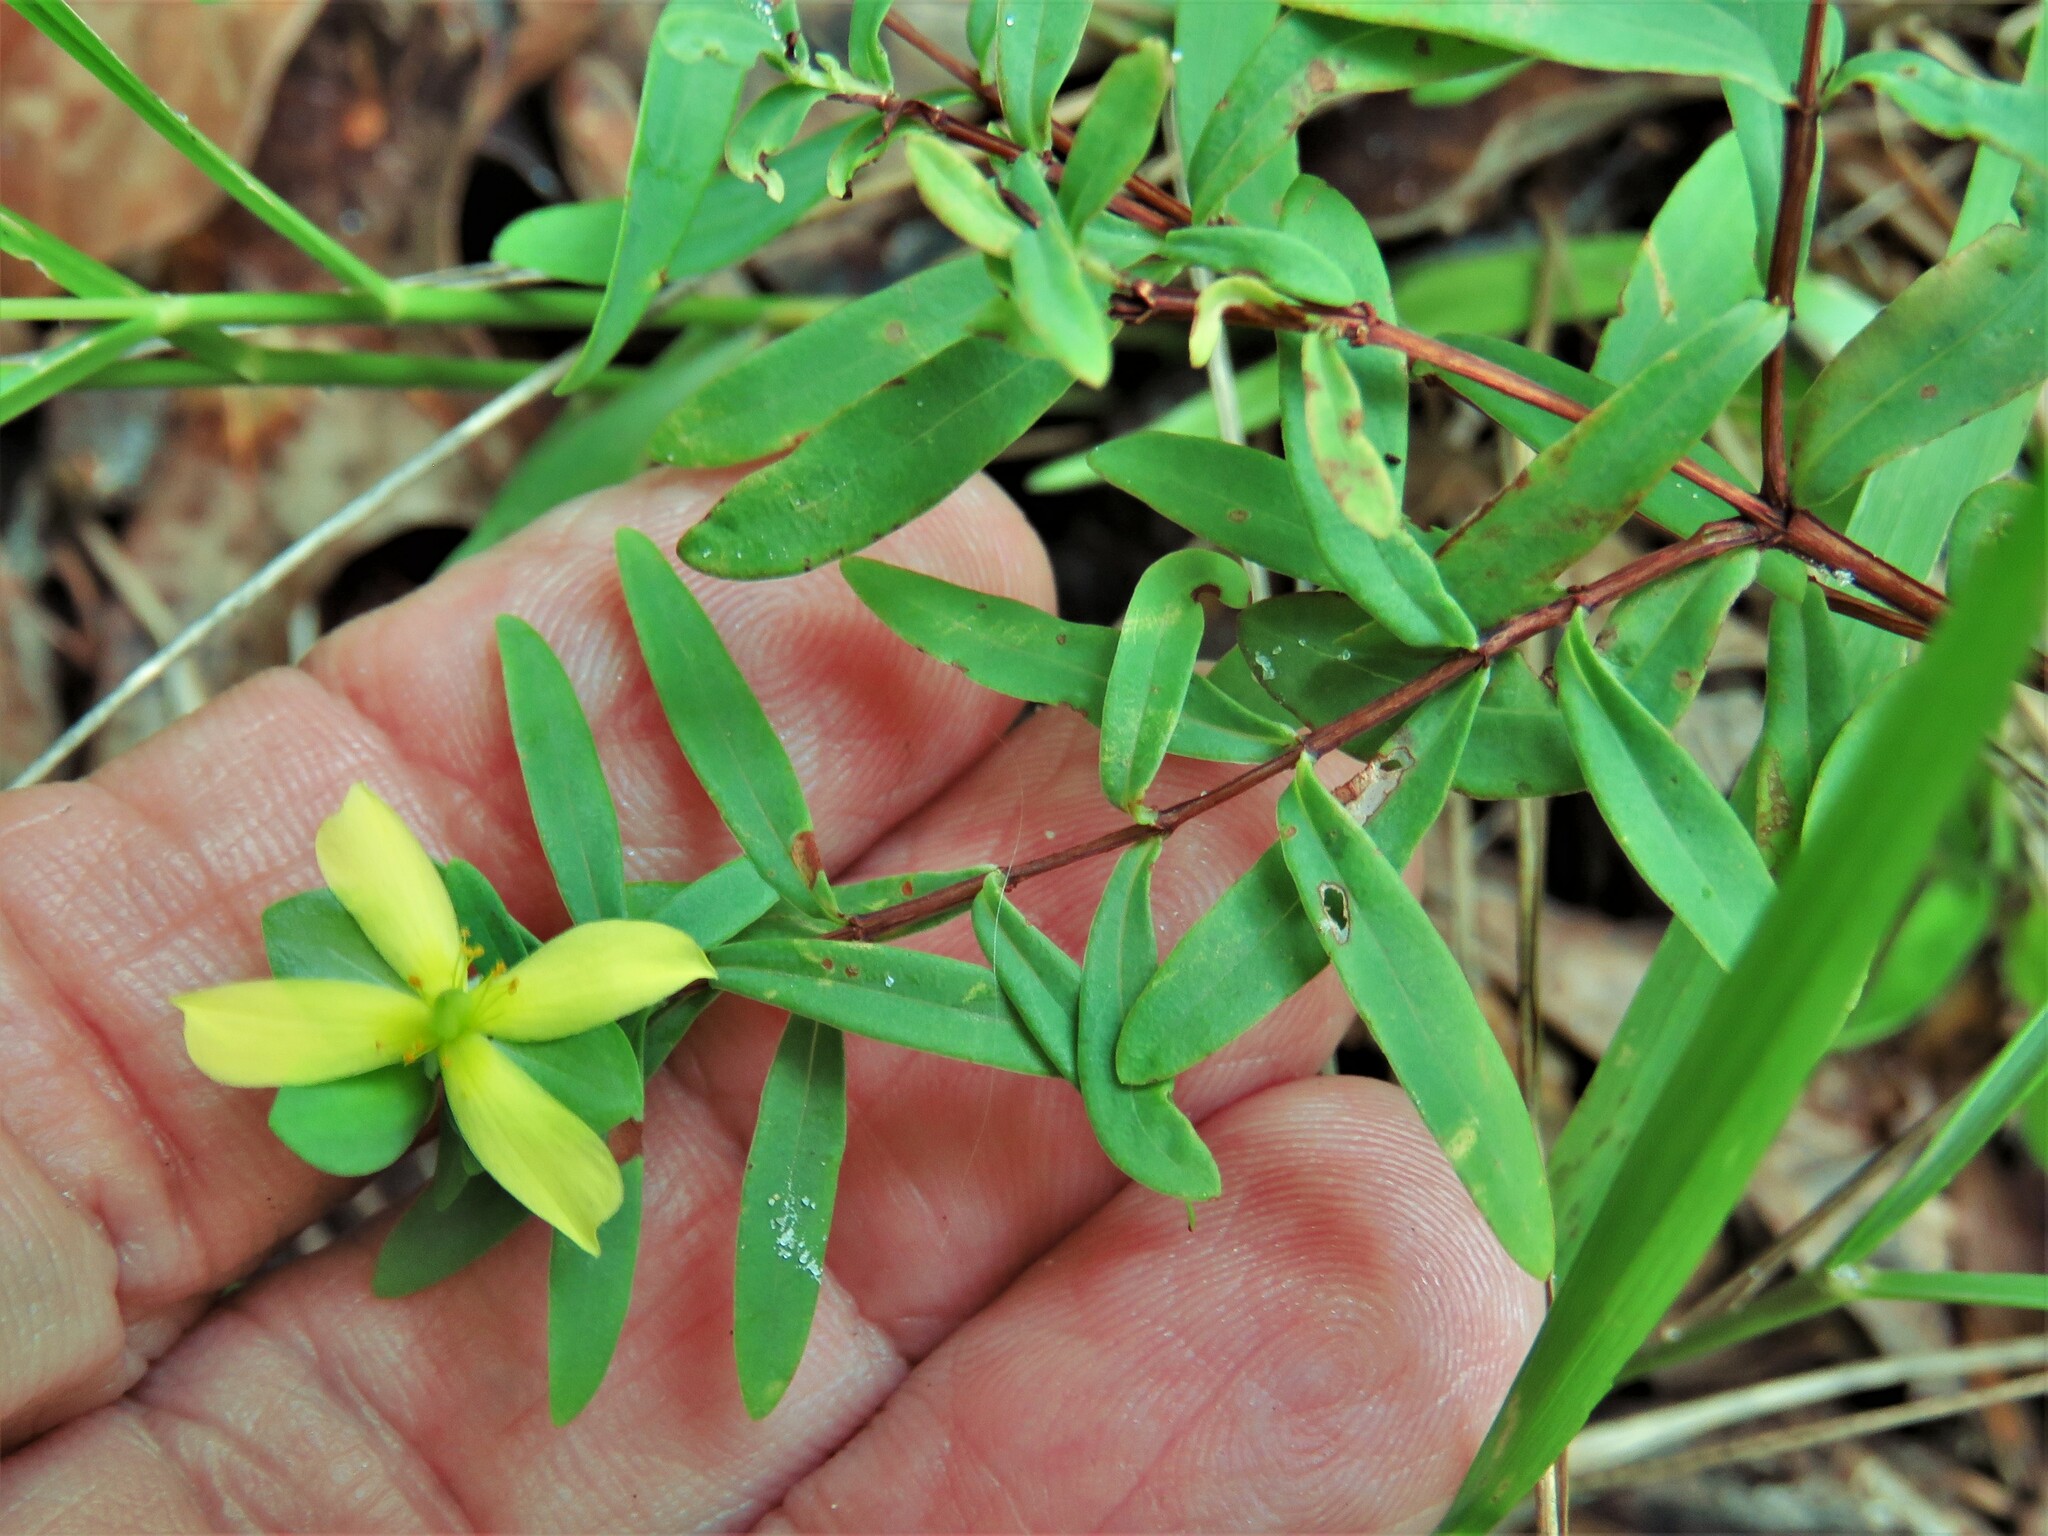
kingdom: Plantae
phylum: Tracheophyta
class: Magnoliopsida
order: Malpighiales
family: Hypericaceae
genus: Hypericum
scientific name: Hypericum hypericoides
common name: St. andrew's cross
